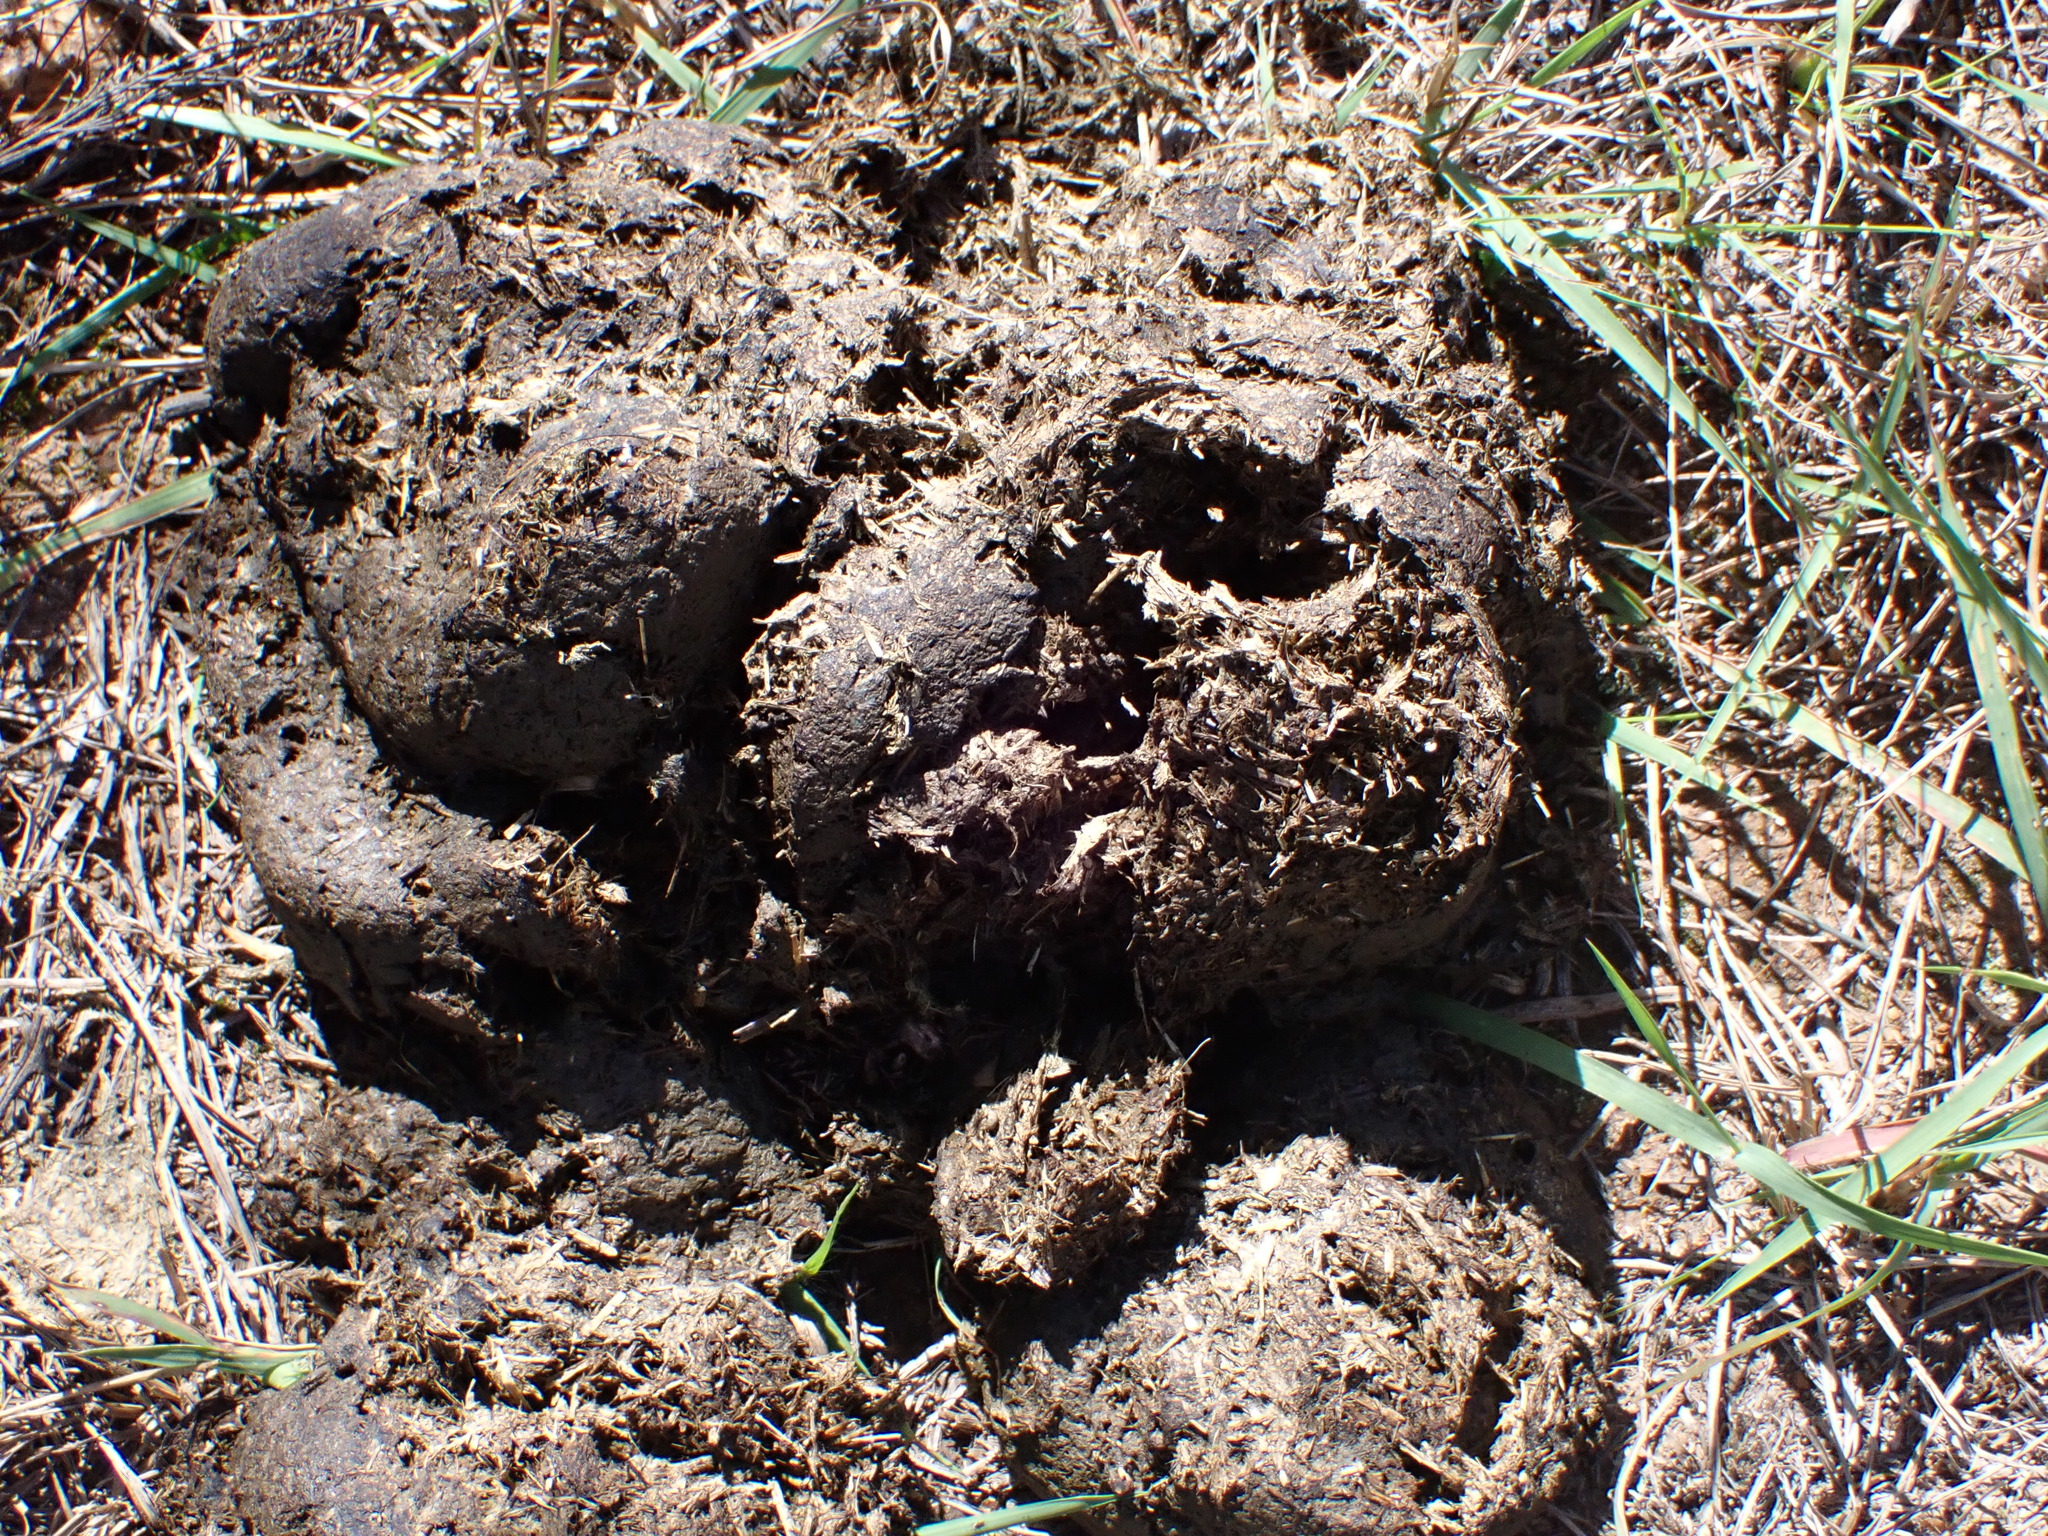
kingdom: Animalia
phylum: Chordata
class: Mammalia
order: Artiodactyla
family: Suidae
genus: Potamochoerus
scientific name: Potamochoerus larvatus
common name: Bushpig
